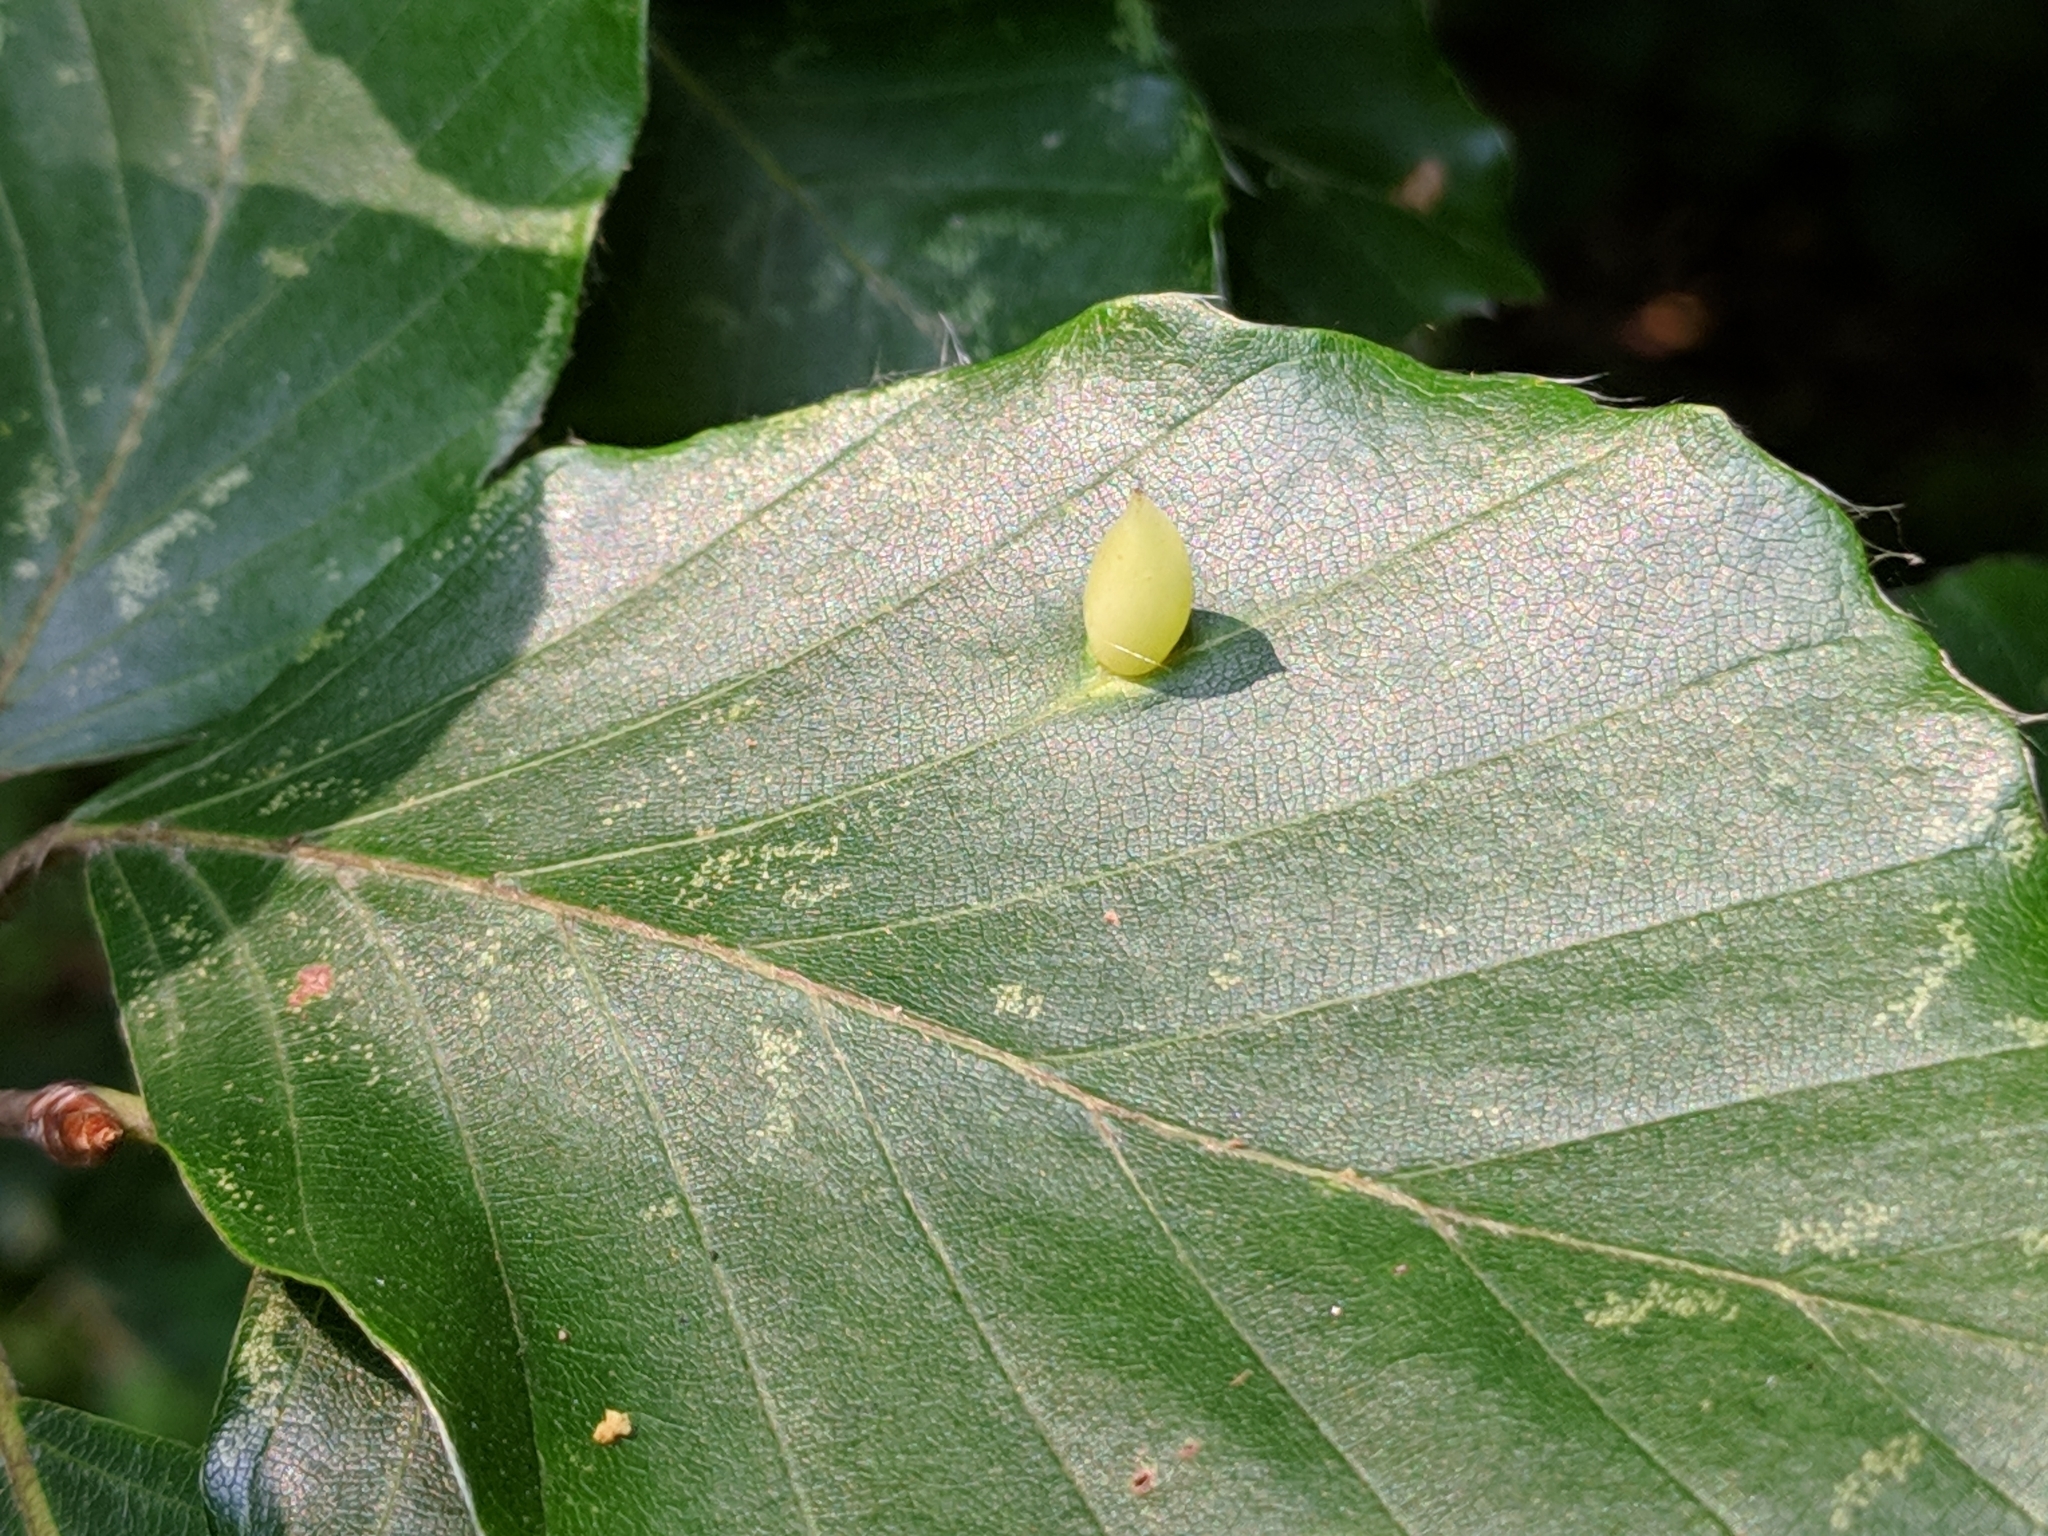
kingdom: Animalia
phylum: Arthropoda
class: Insecta
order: Diptera
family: Cecidomyiidae
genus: Mikiola
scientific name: Mikiola fagi
